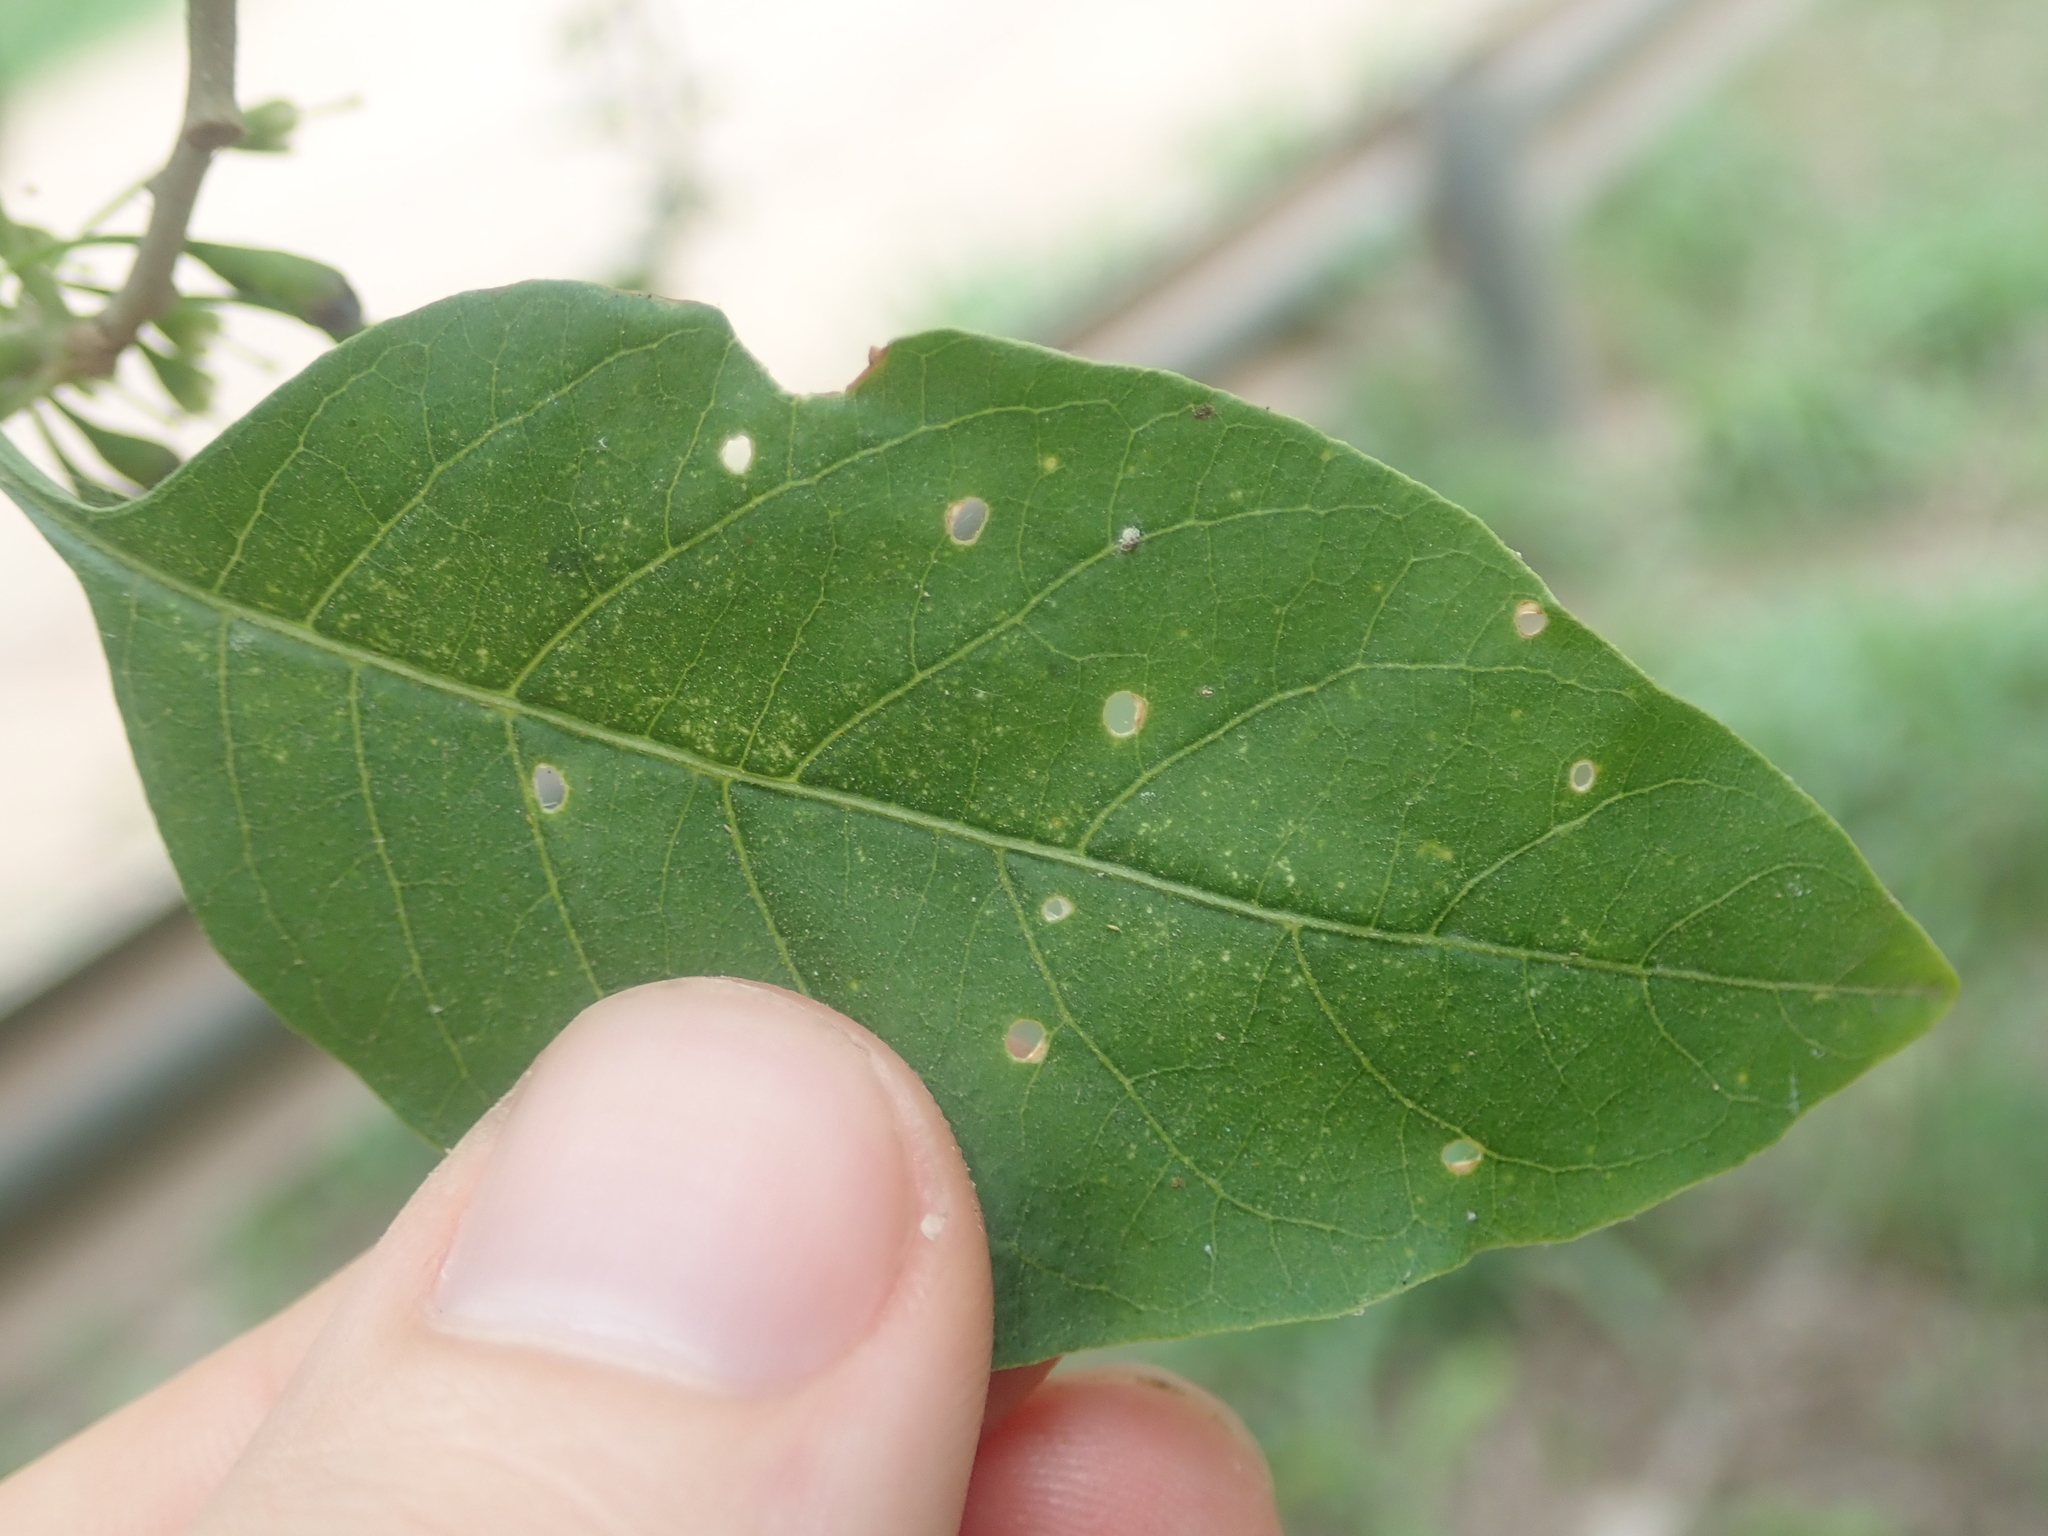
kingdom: Plantae
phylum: Tracheophyta
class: Magnoliopsida
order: Solanales
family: Solanaceae
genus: Vassobia
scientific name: Vassobia breviflora
